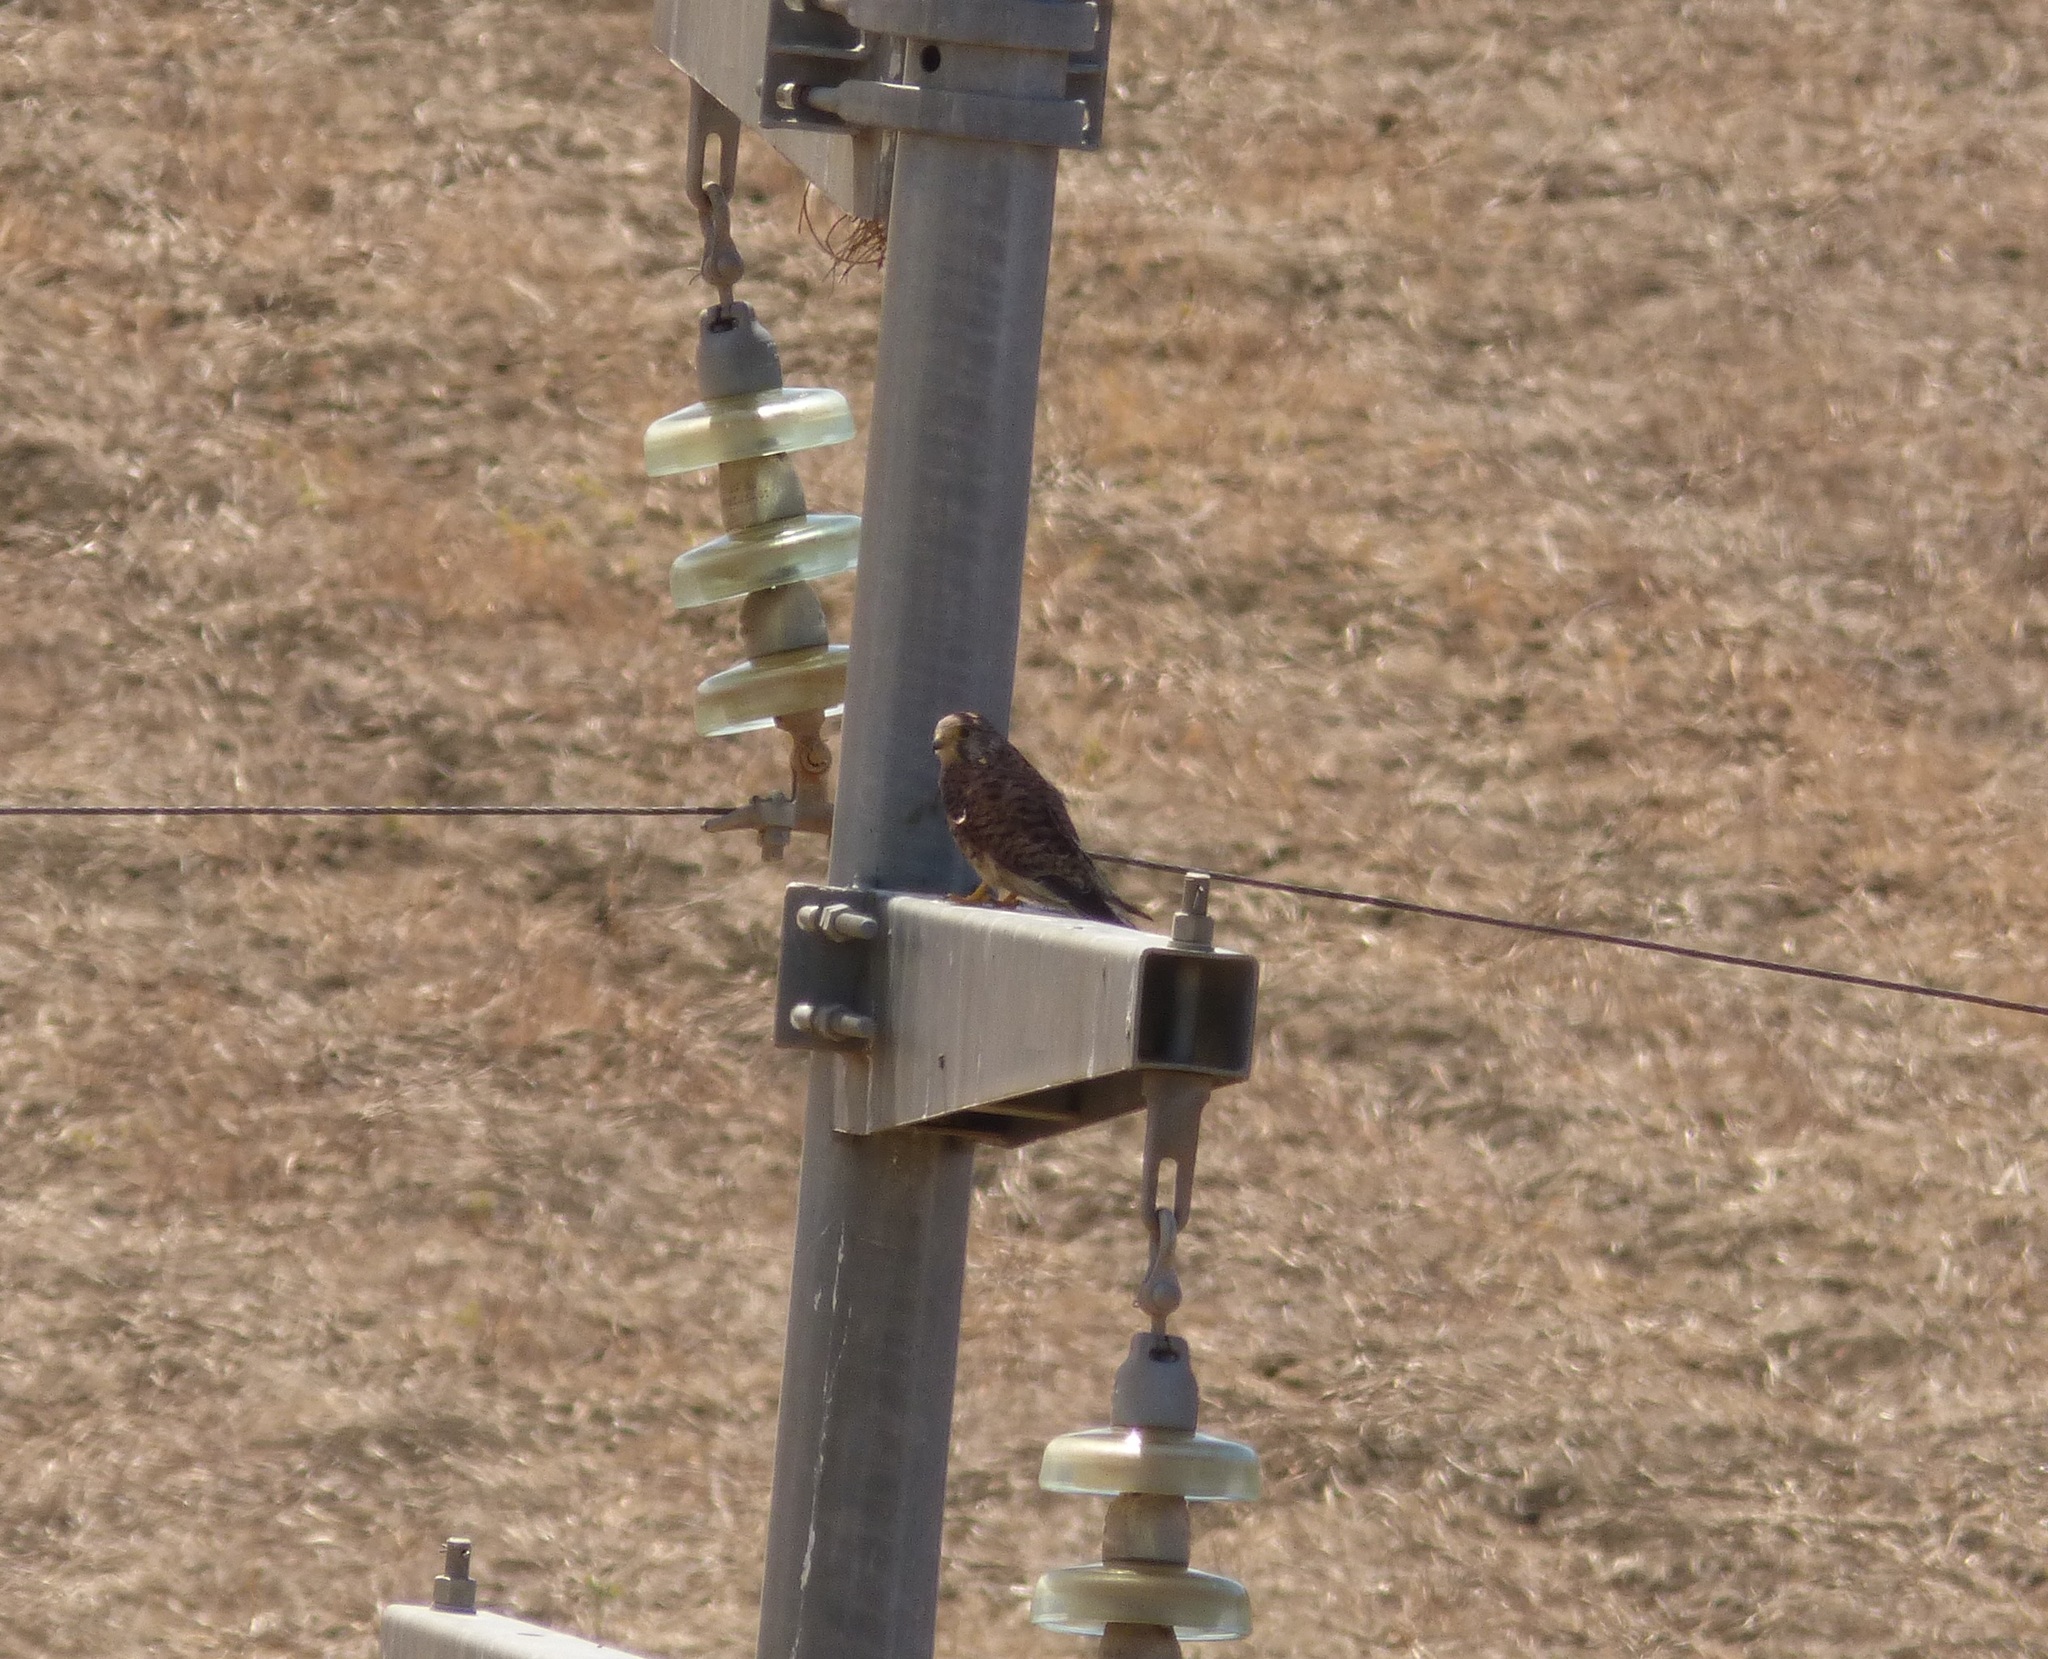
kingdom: Animalia
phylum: Chordata
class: Aves
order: Falconiformes
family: Falconidae
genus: Falco
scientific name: Falco tinnunculus
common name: Common kestrel
